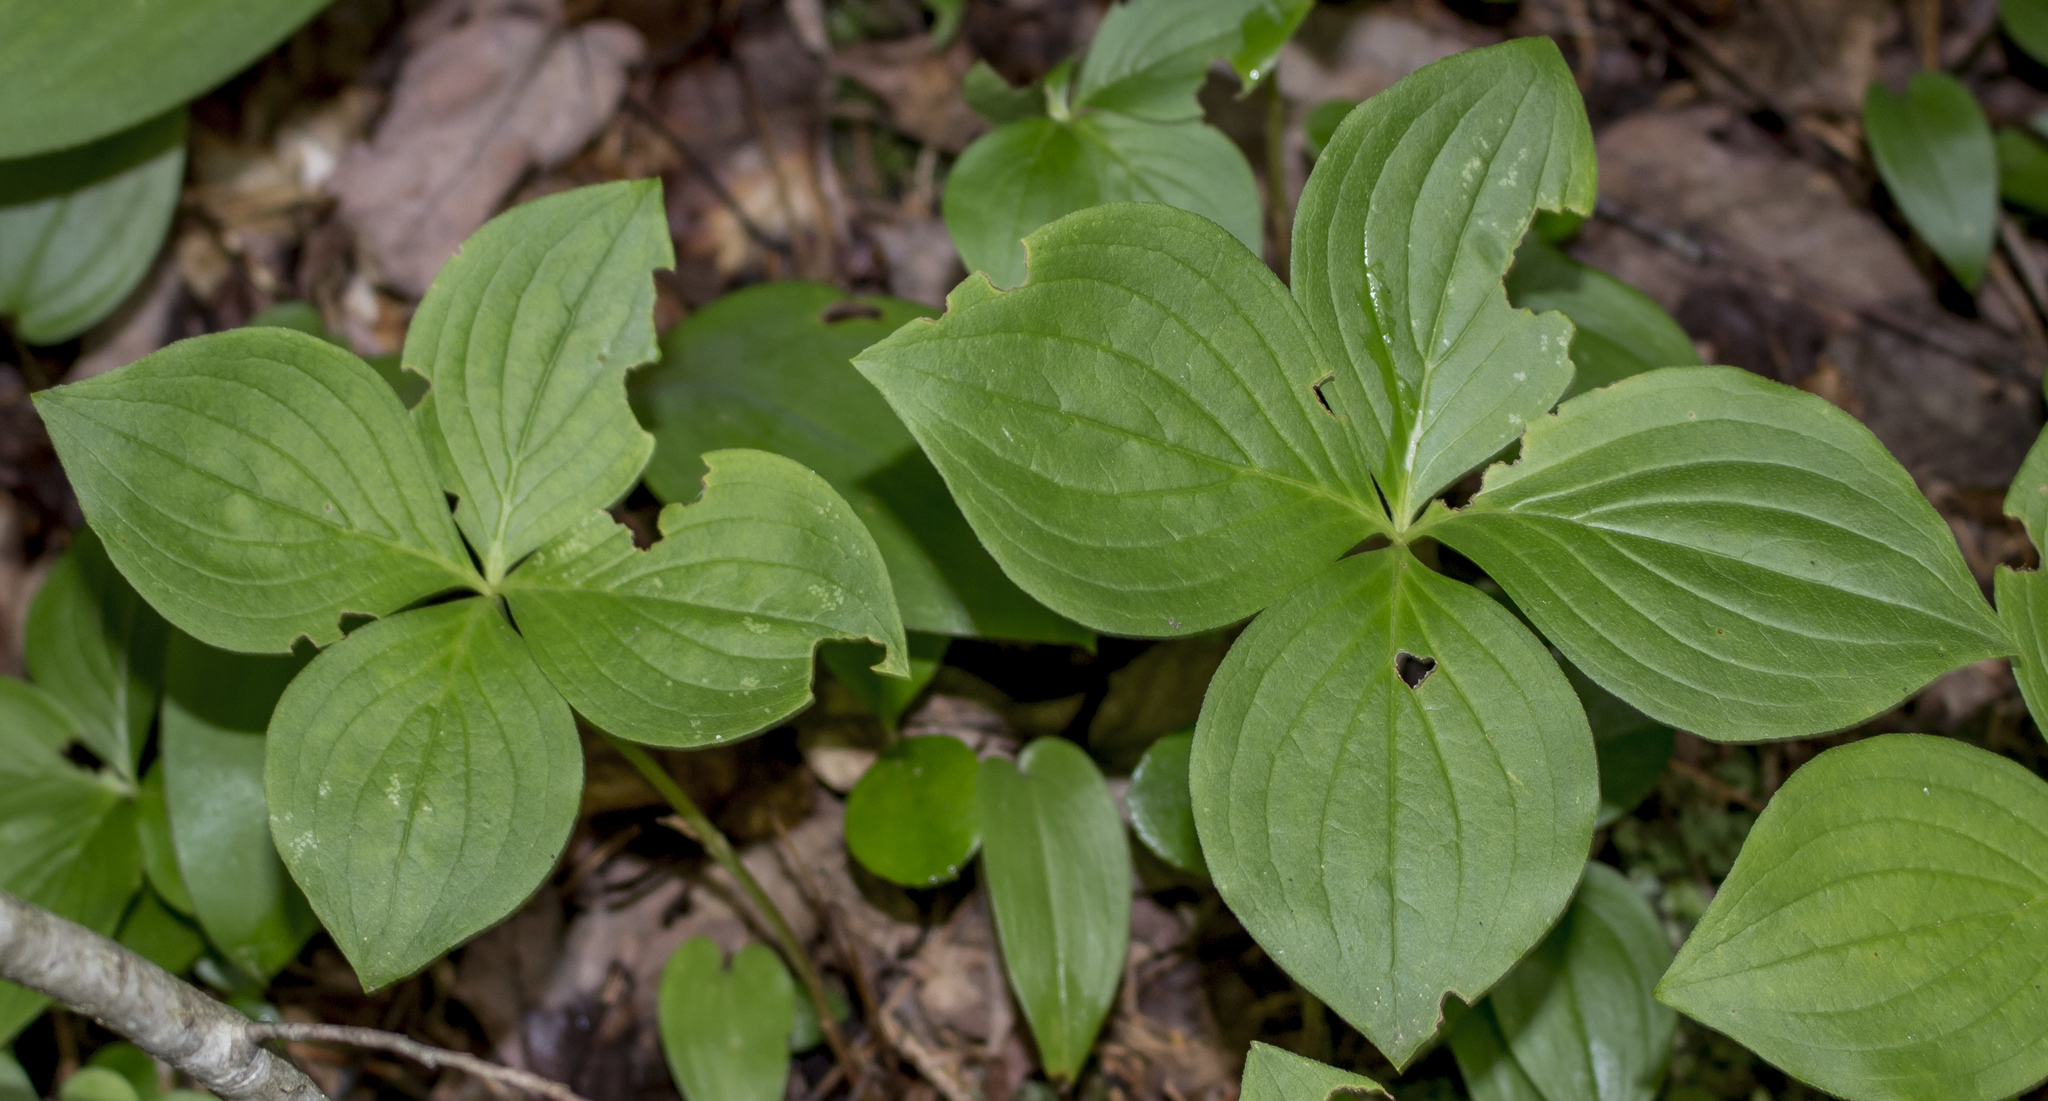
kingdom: Plantae
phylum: Tracheophyta
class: Magnoliopsida
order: Cornales
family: Cornaceae
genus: Cornus
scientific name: Cornus canadensis
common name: Creeping dogwood
